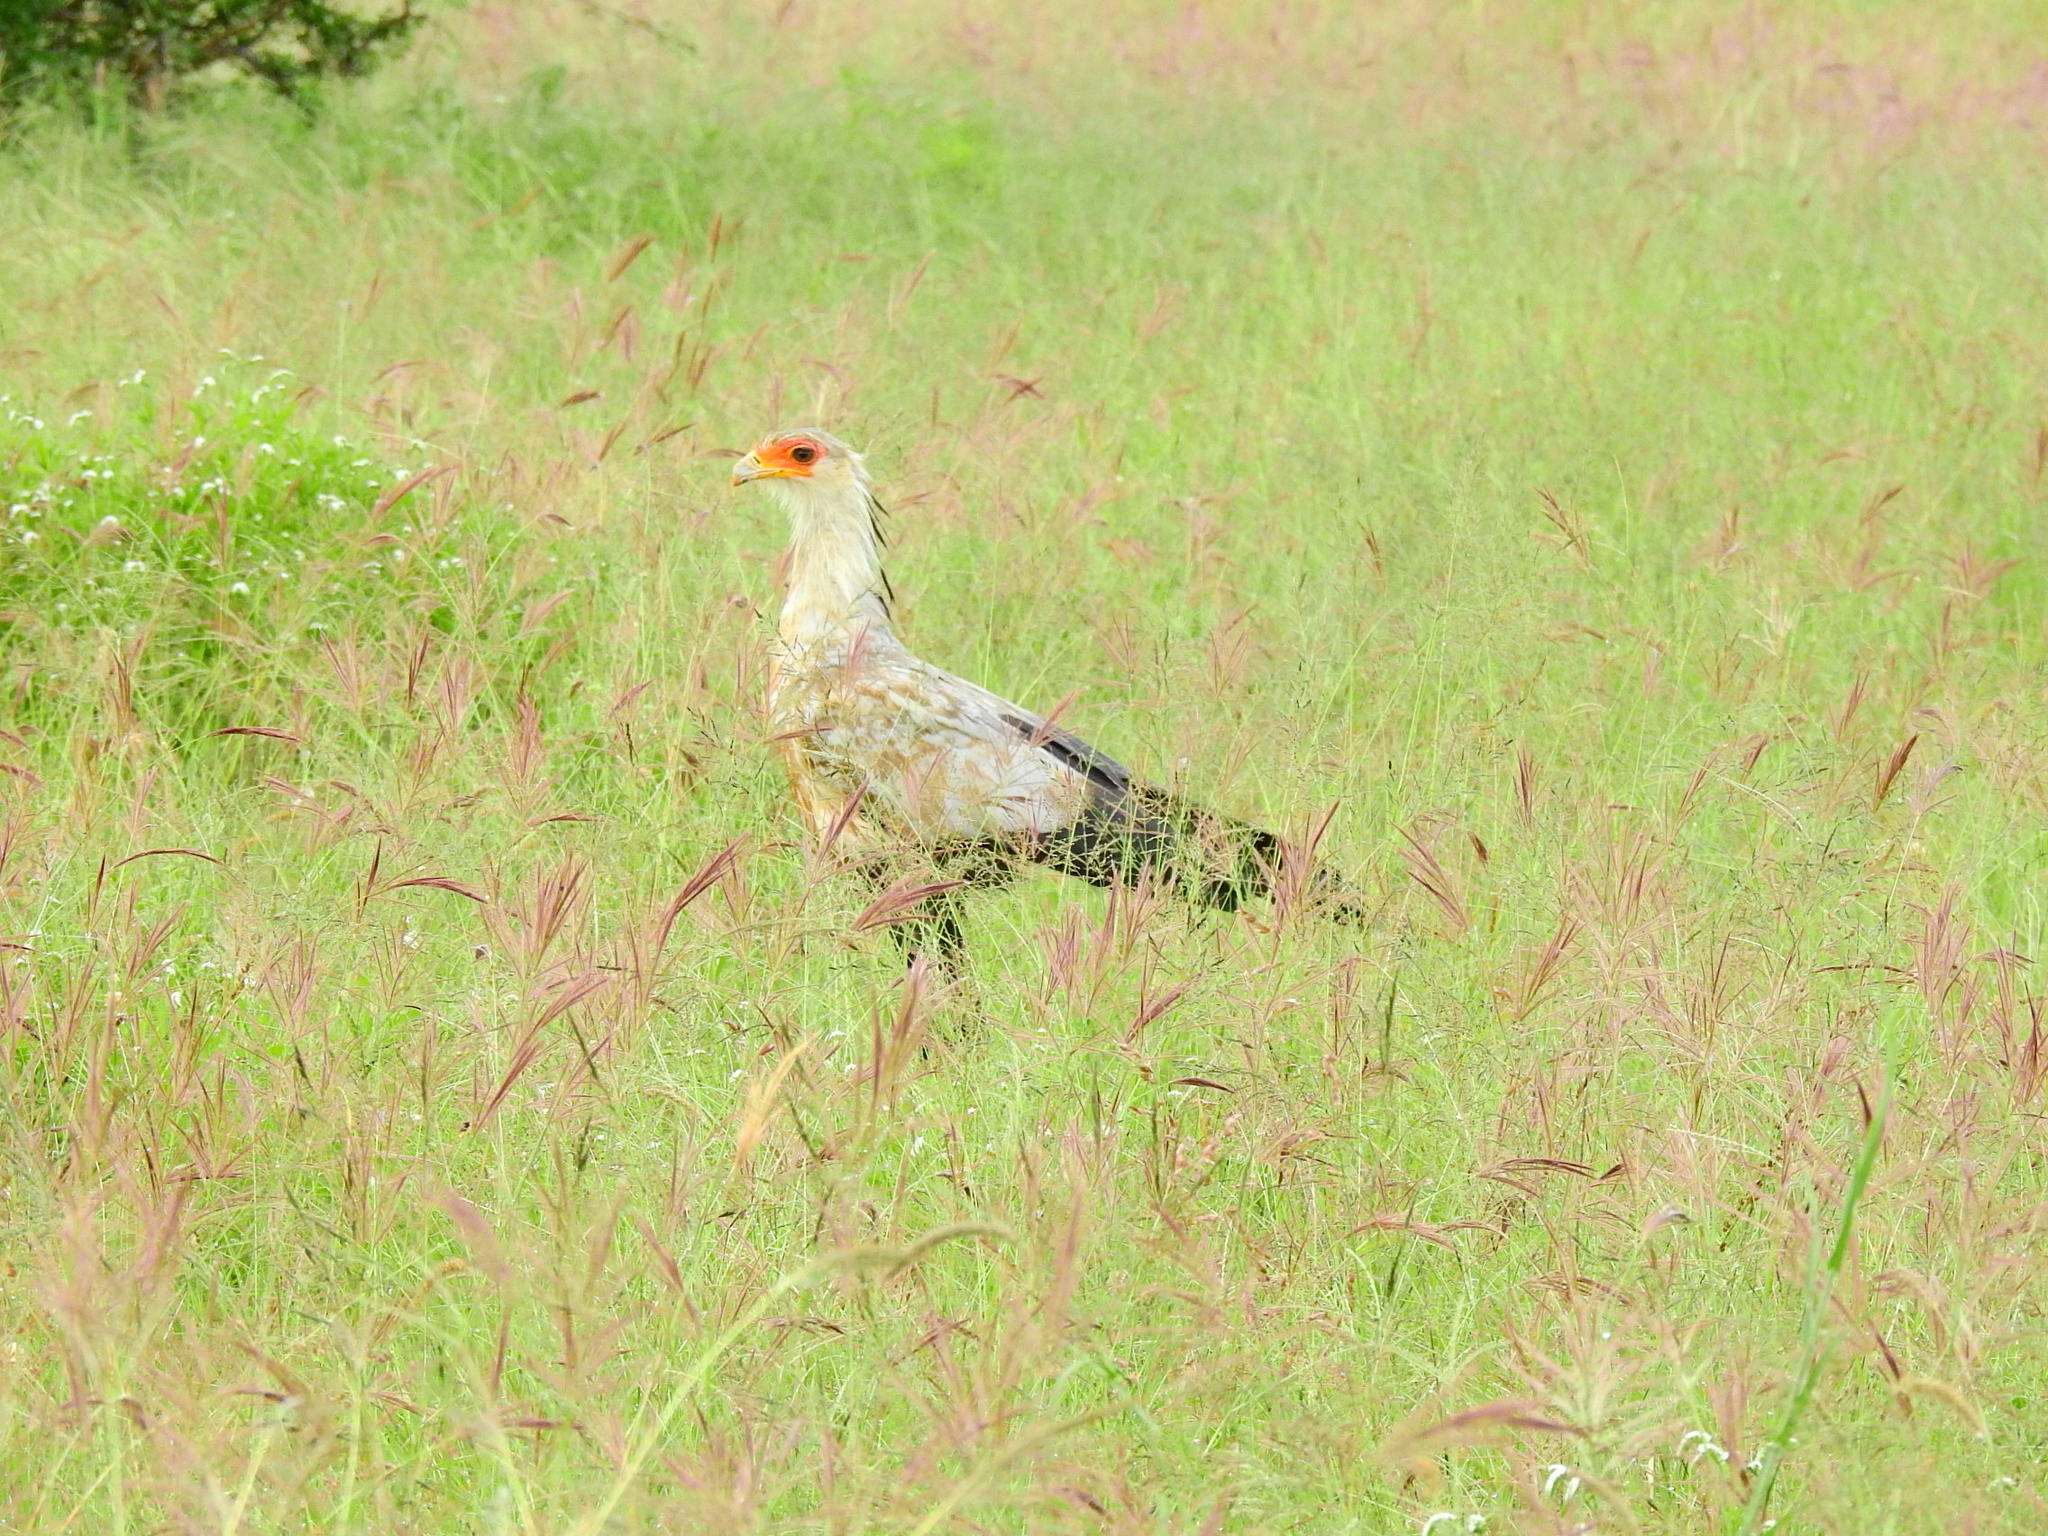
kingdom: Animalia
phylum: Chordata
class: Aves
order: Accipitriformes
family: Sagittariidae
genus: Sagittarius
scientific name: Sagittarius serpentarius
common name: Secretarybird
